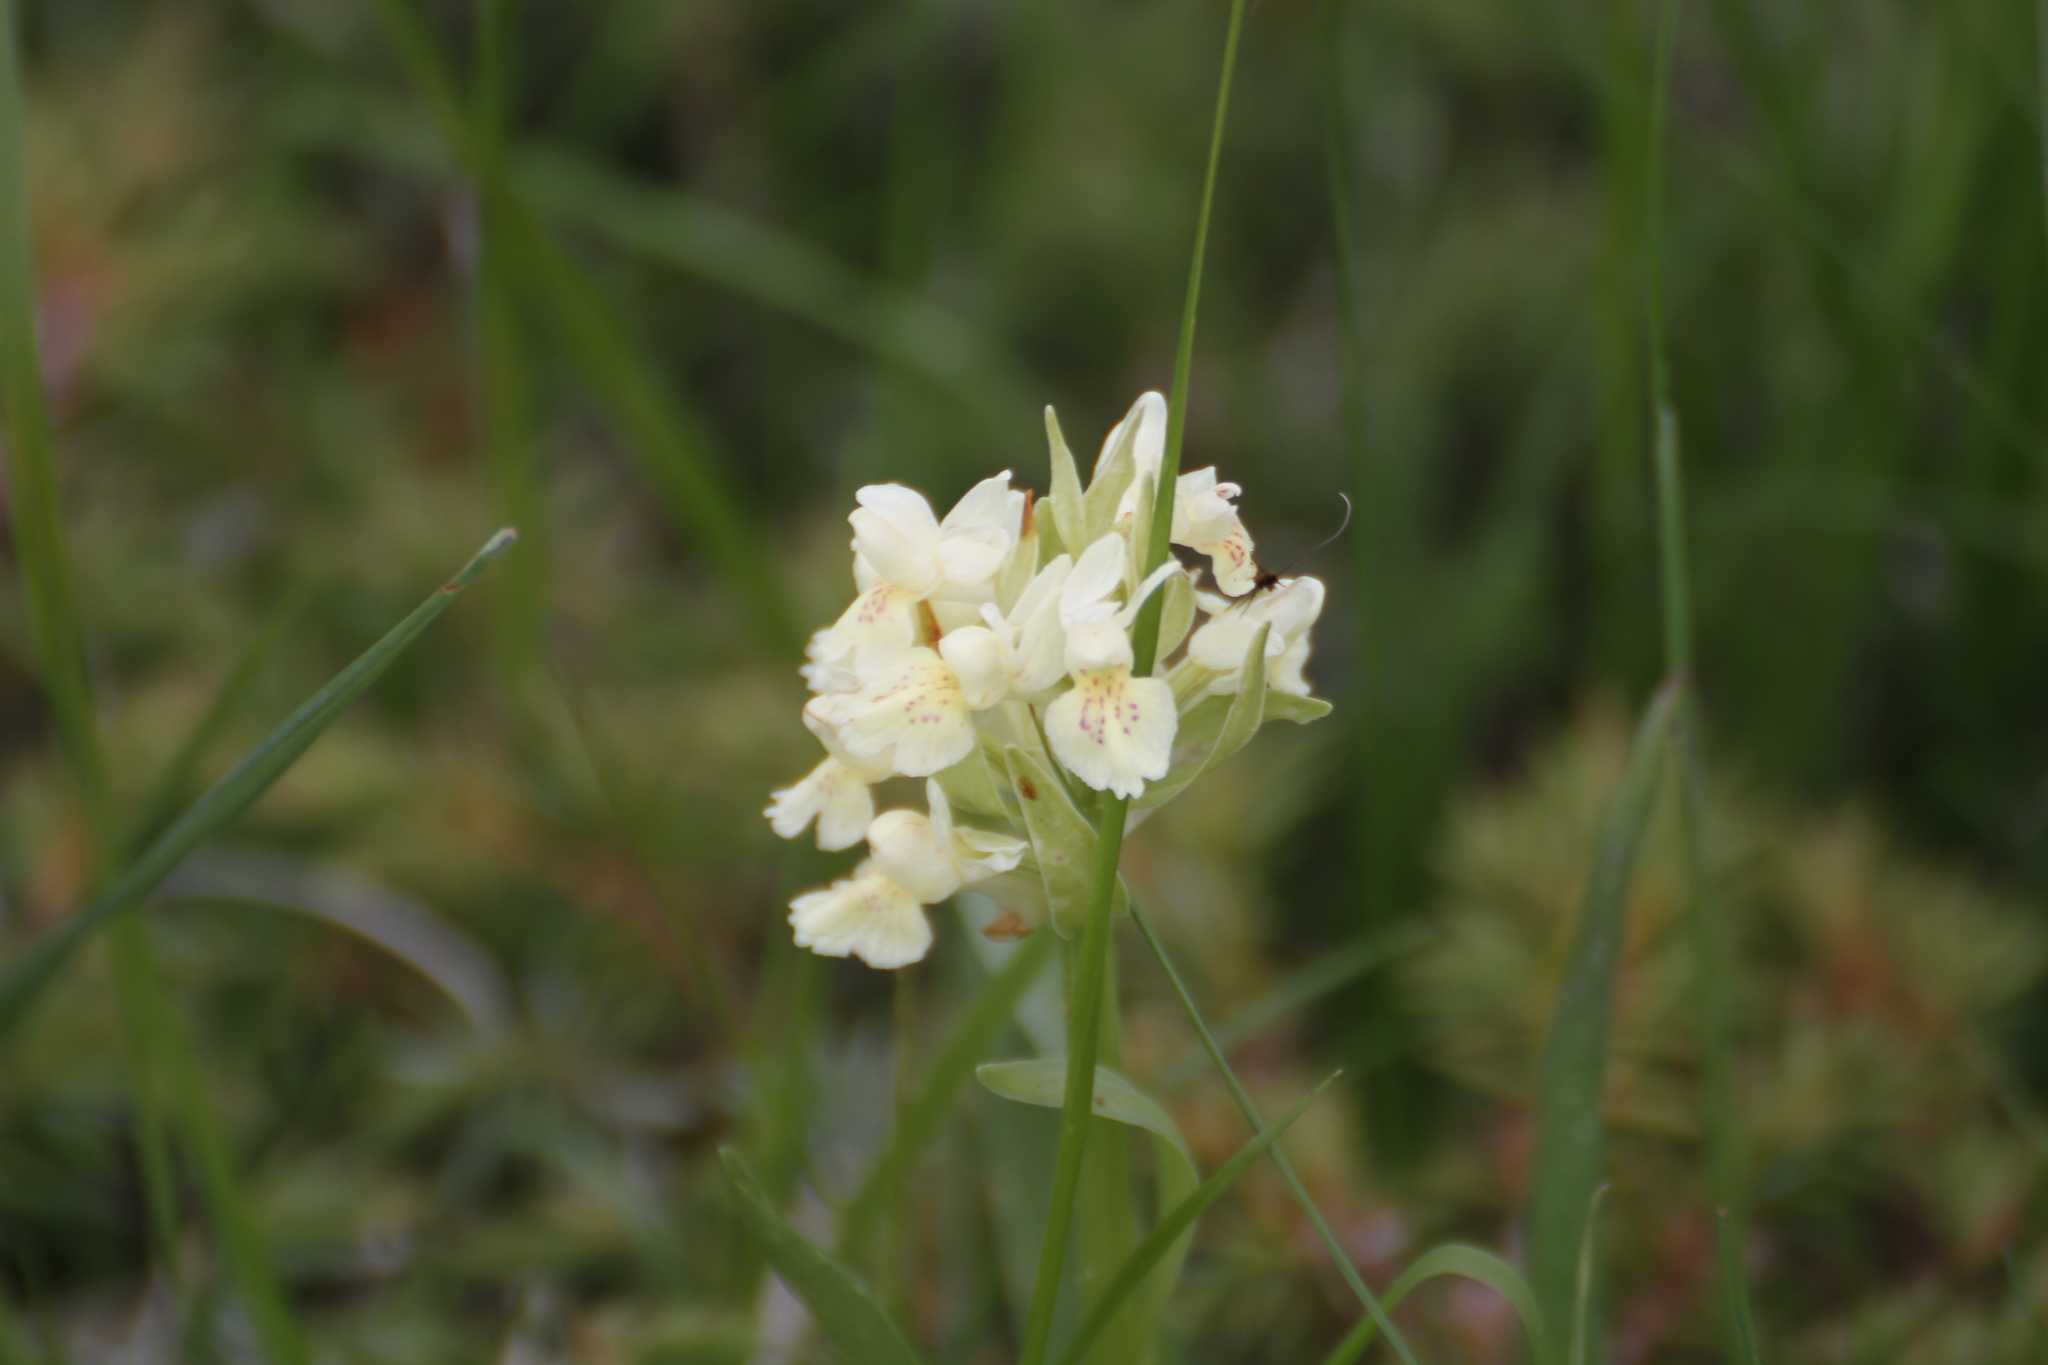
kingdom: Plantae
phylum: Tracheophyta
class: Liliopsida
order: Asparagales
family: Orchidaceae
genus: Dactylorhiza
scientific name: Dactylorhiza sambucina
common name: Elder-flowered orchid
